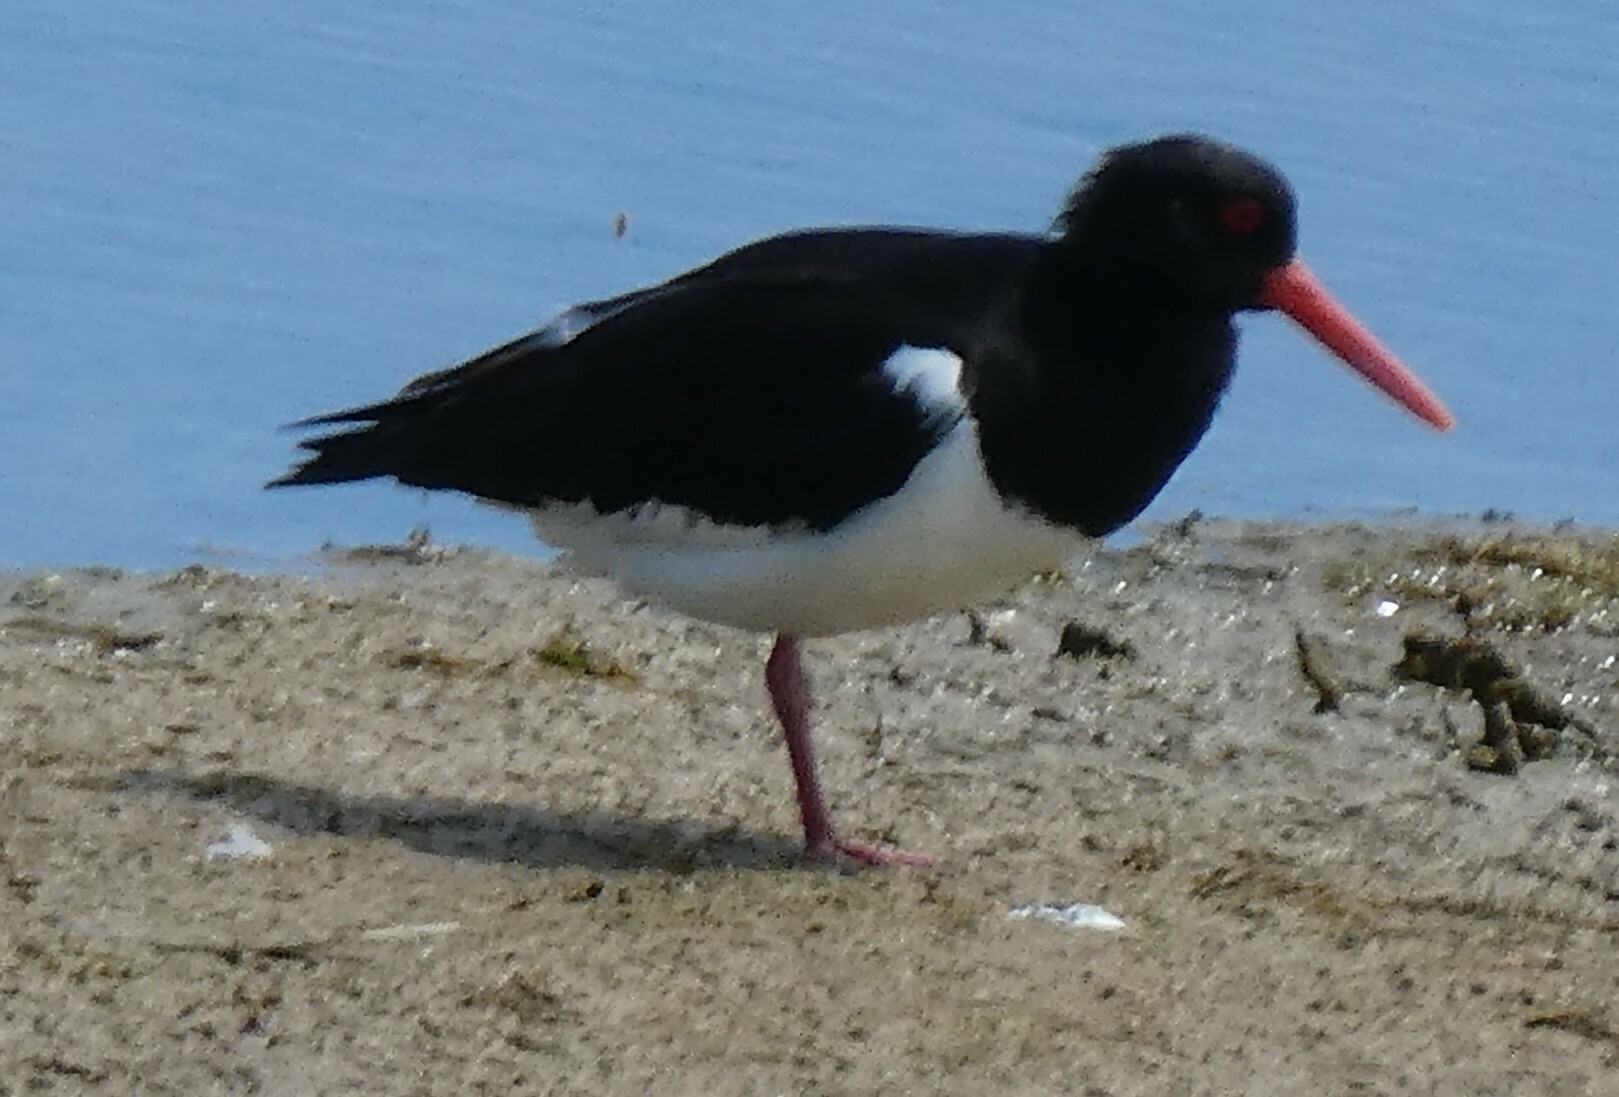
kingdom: Animalia
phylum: Chordata
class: Aves
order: Charadriiformes
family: Haematopodidae
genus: Haematopus
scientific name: Haematopus ostralegus
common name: Eurasian oystercatcher
